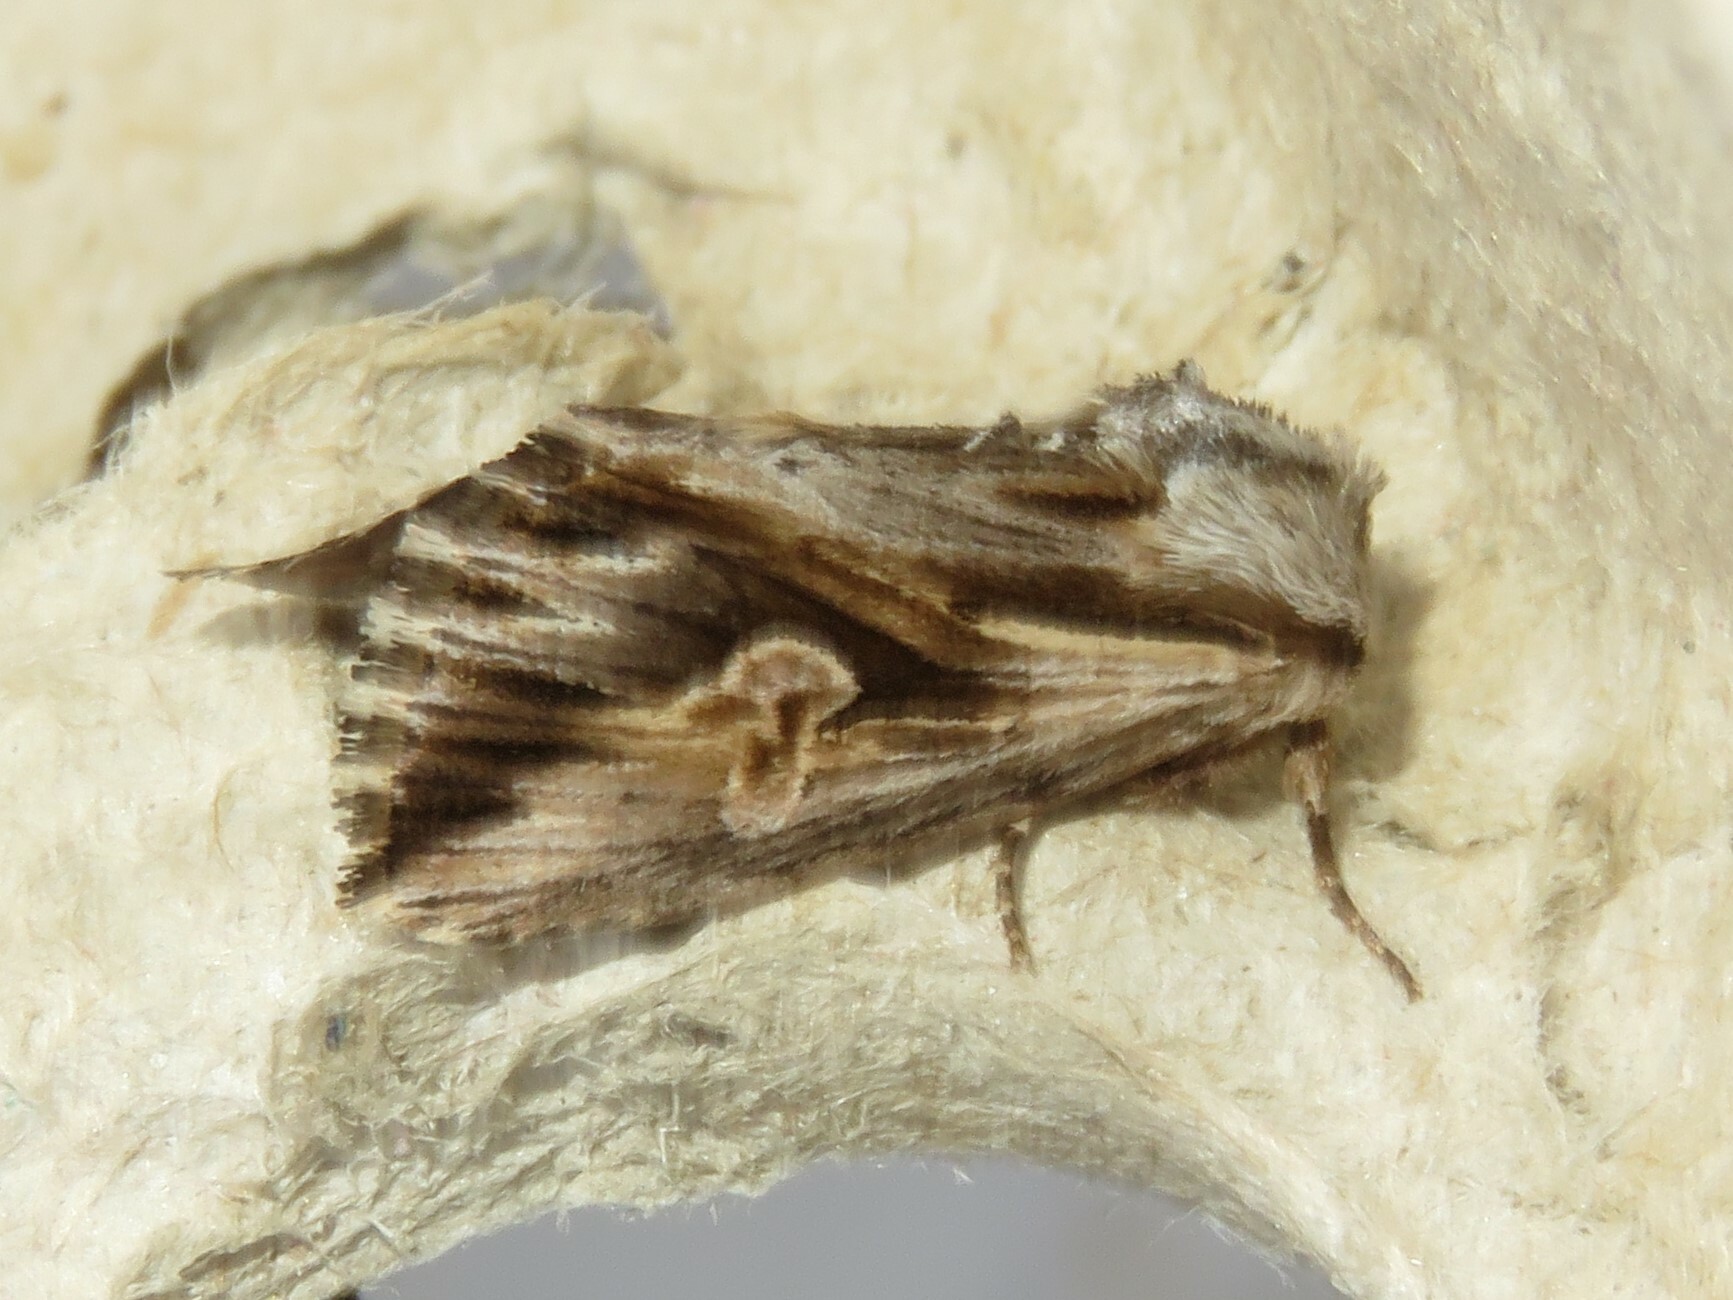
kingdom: Animalia
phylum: Arthropoda
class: Insecta
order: Lepidoptera
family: Noctuidae
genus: Nedra
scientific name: Nedra ramosula
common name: Gray half-spot
